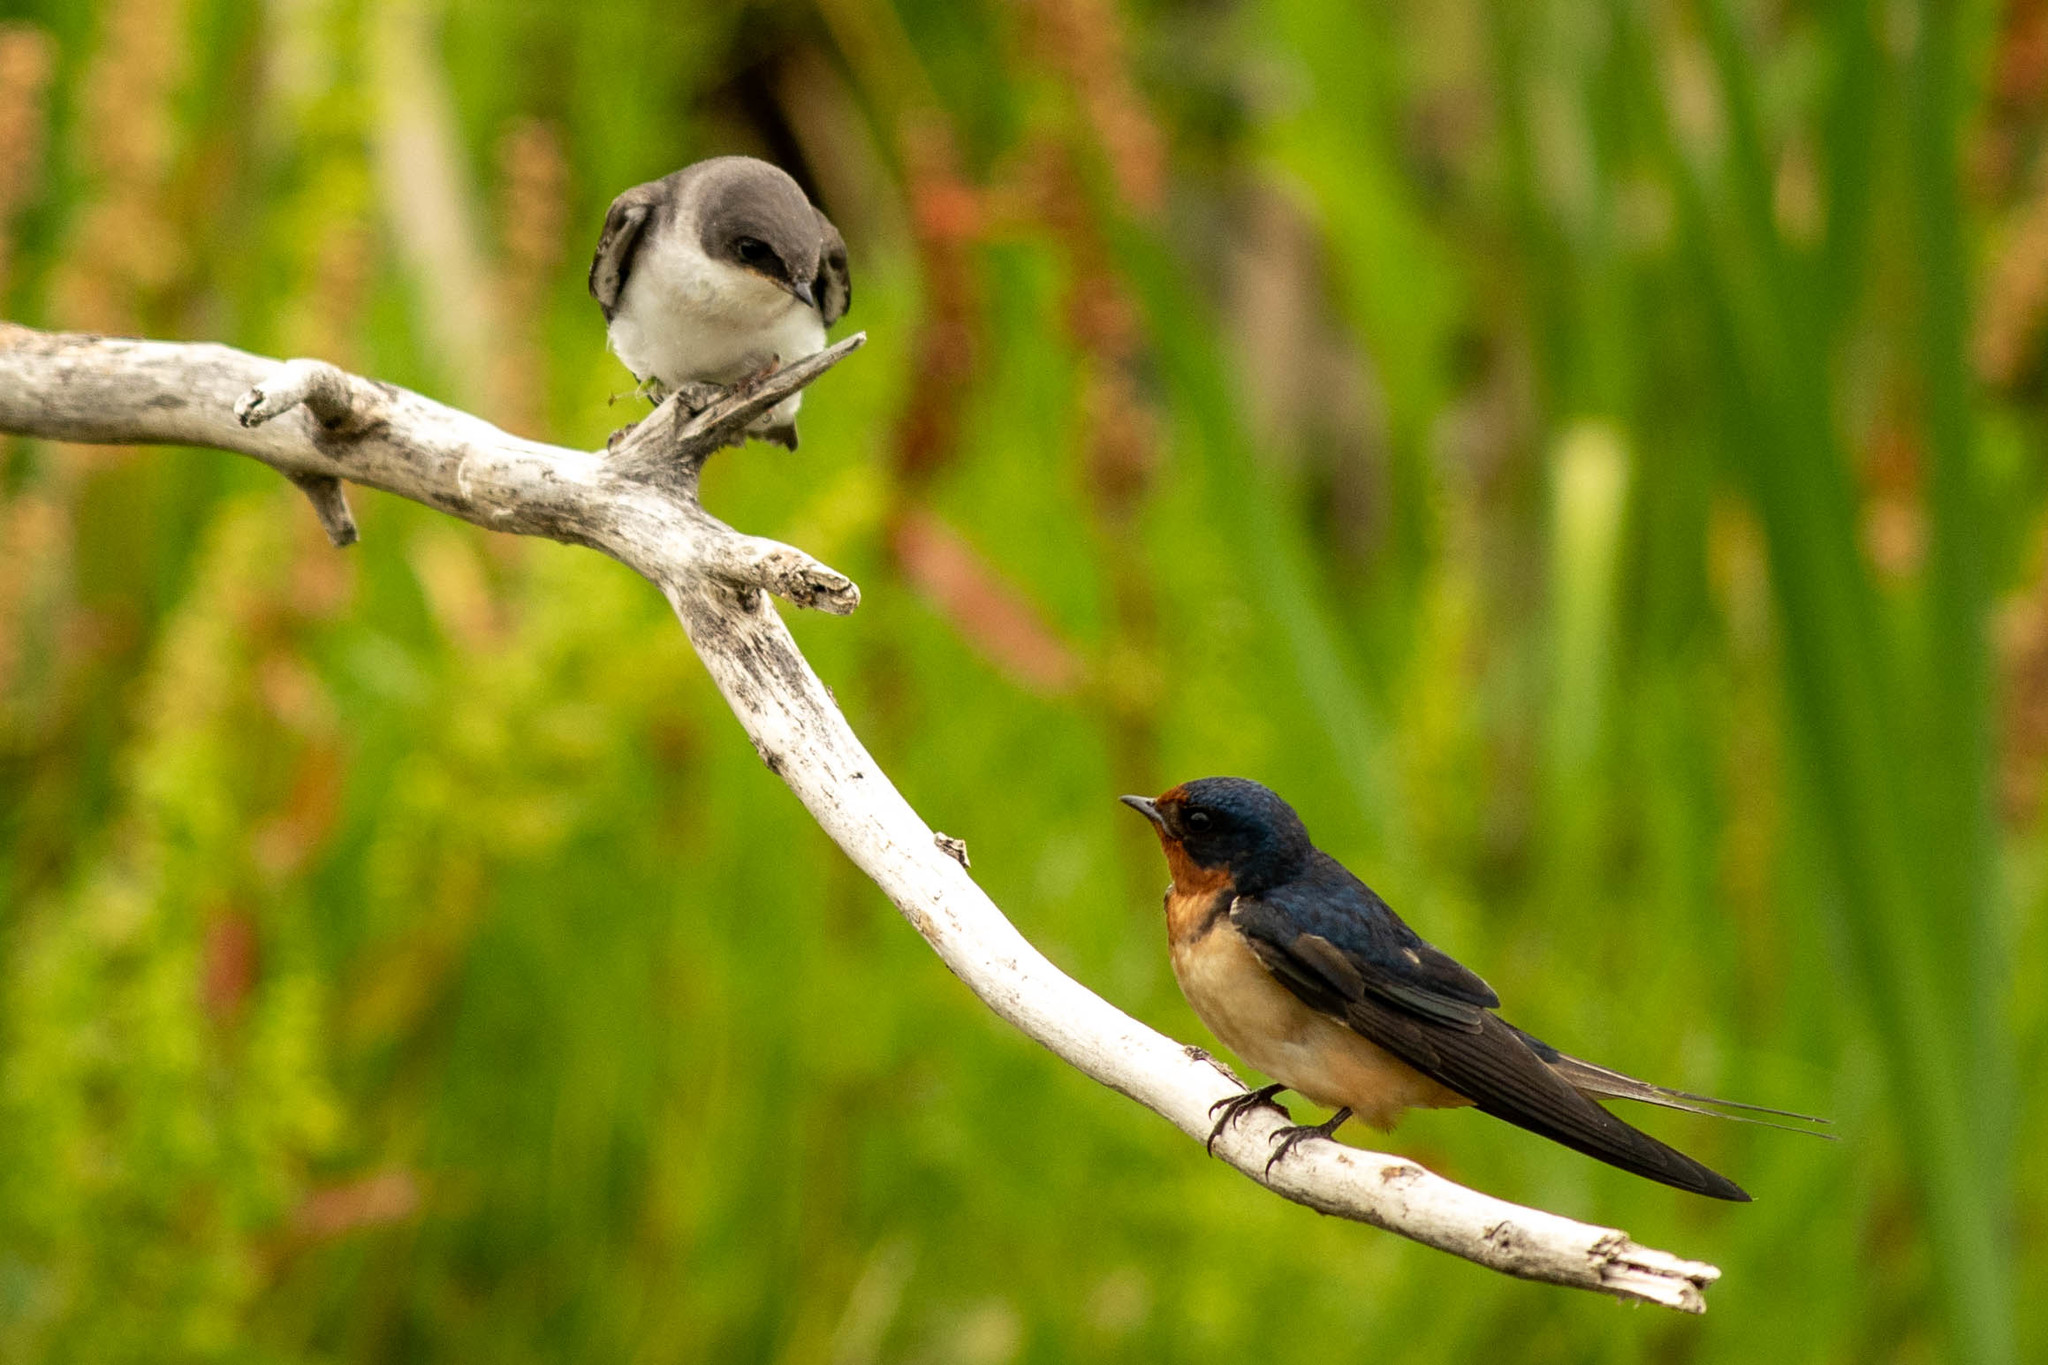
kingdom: Animalia
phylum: Chordata
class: Aves
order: Passeriformes
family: Hirundinidae
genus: Hirundo
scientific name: Hirundo rustica
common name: Barn swallow
